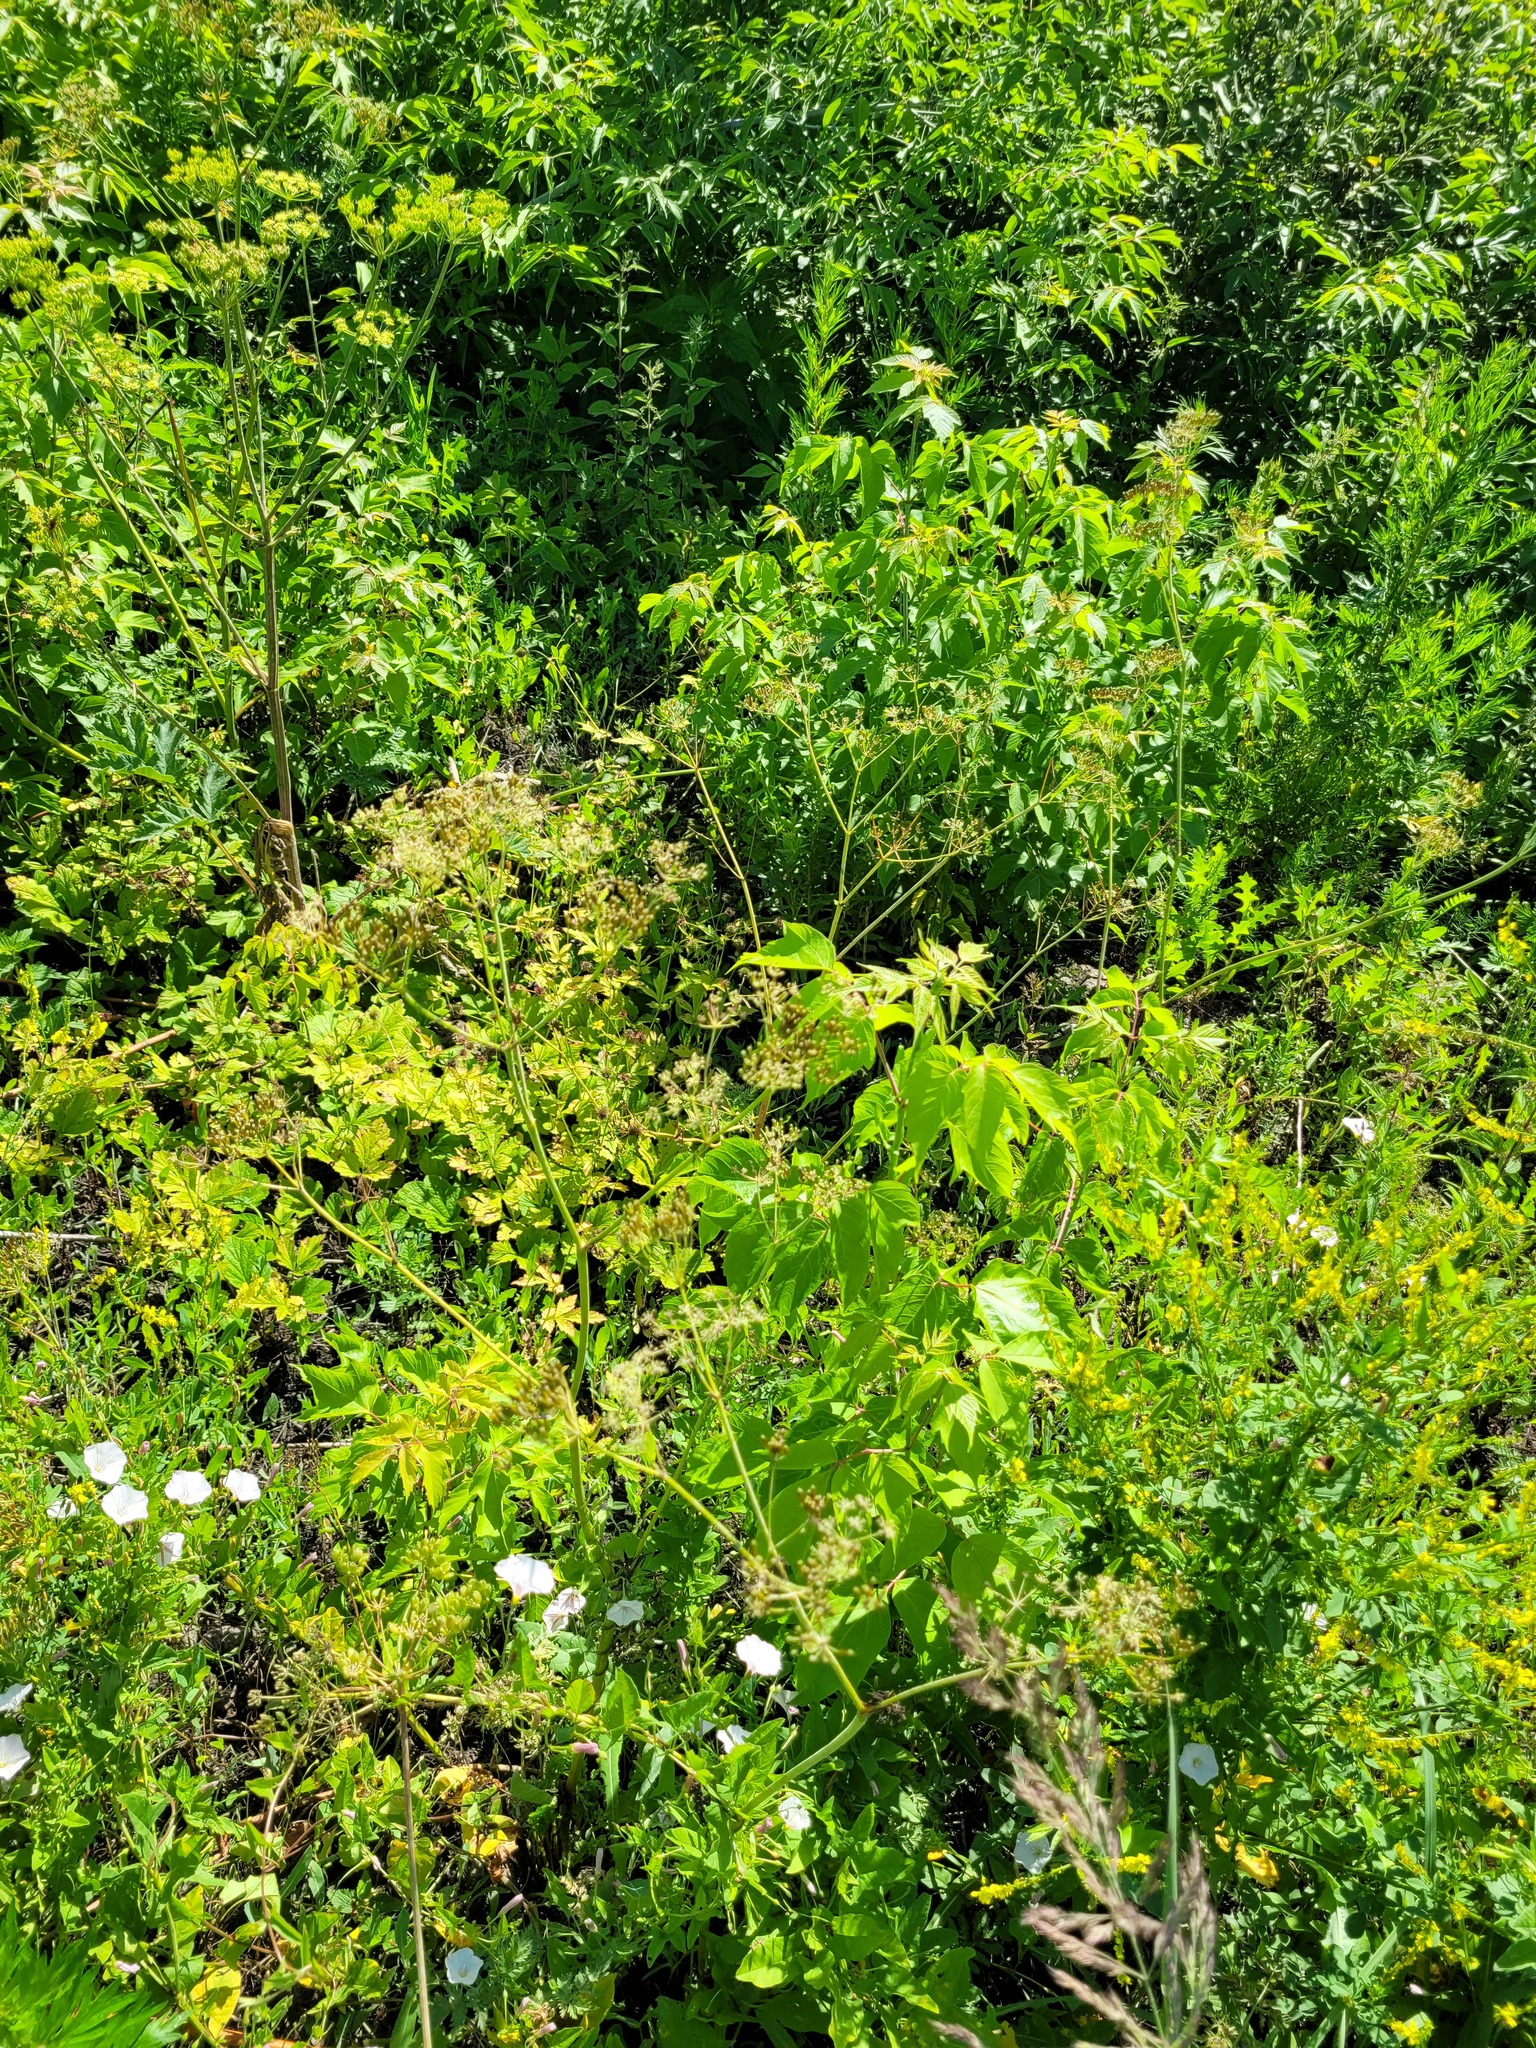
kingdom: Plantae
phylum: Tracheophyta
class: Magnoliopsida
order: Apiales
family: Apiaceae
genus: Anthriscus
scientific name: Anthriscus sylvestris
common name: Cow parsley
